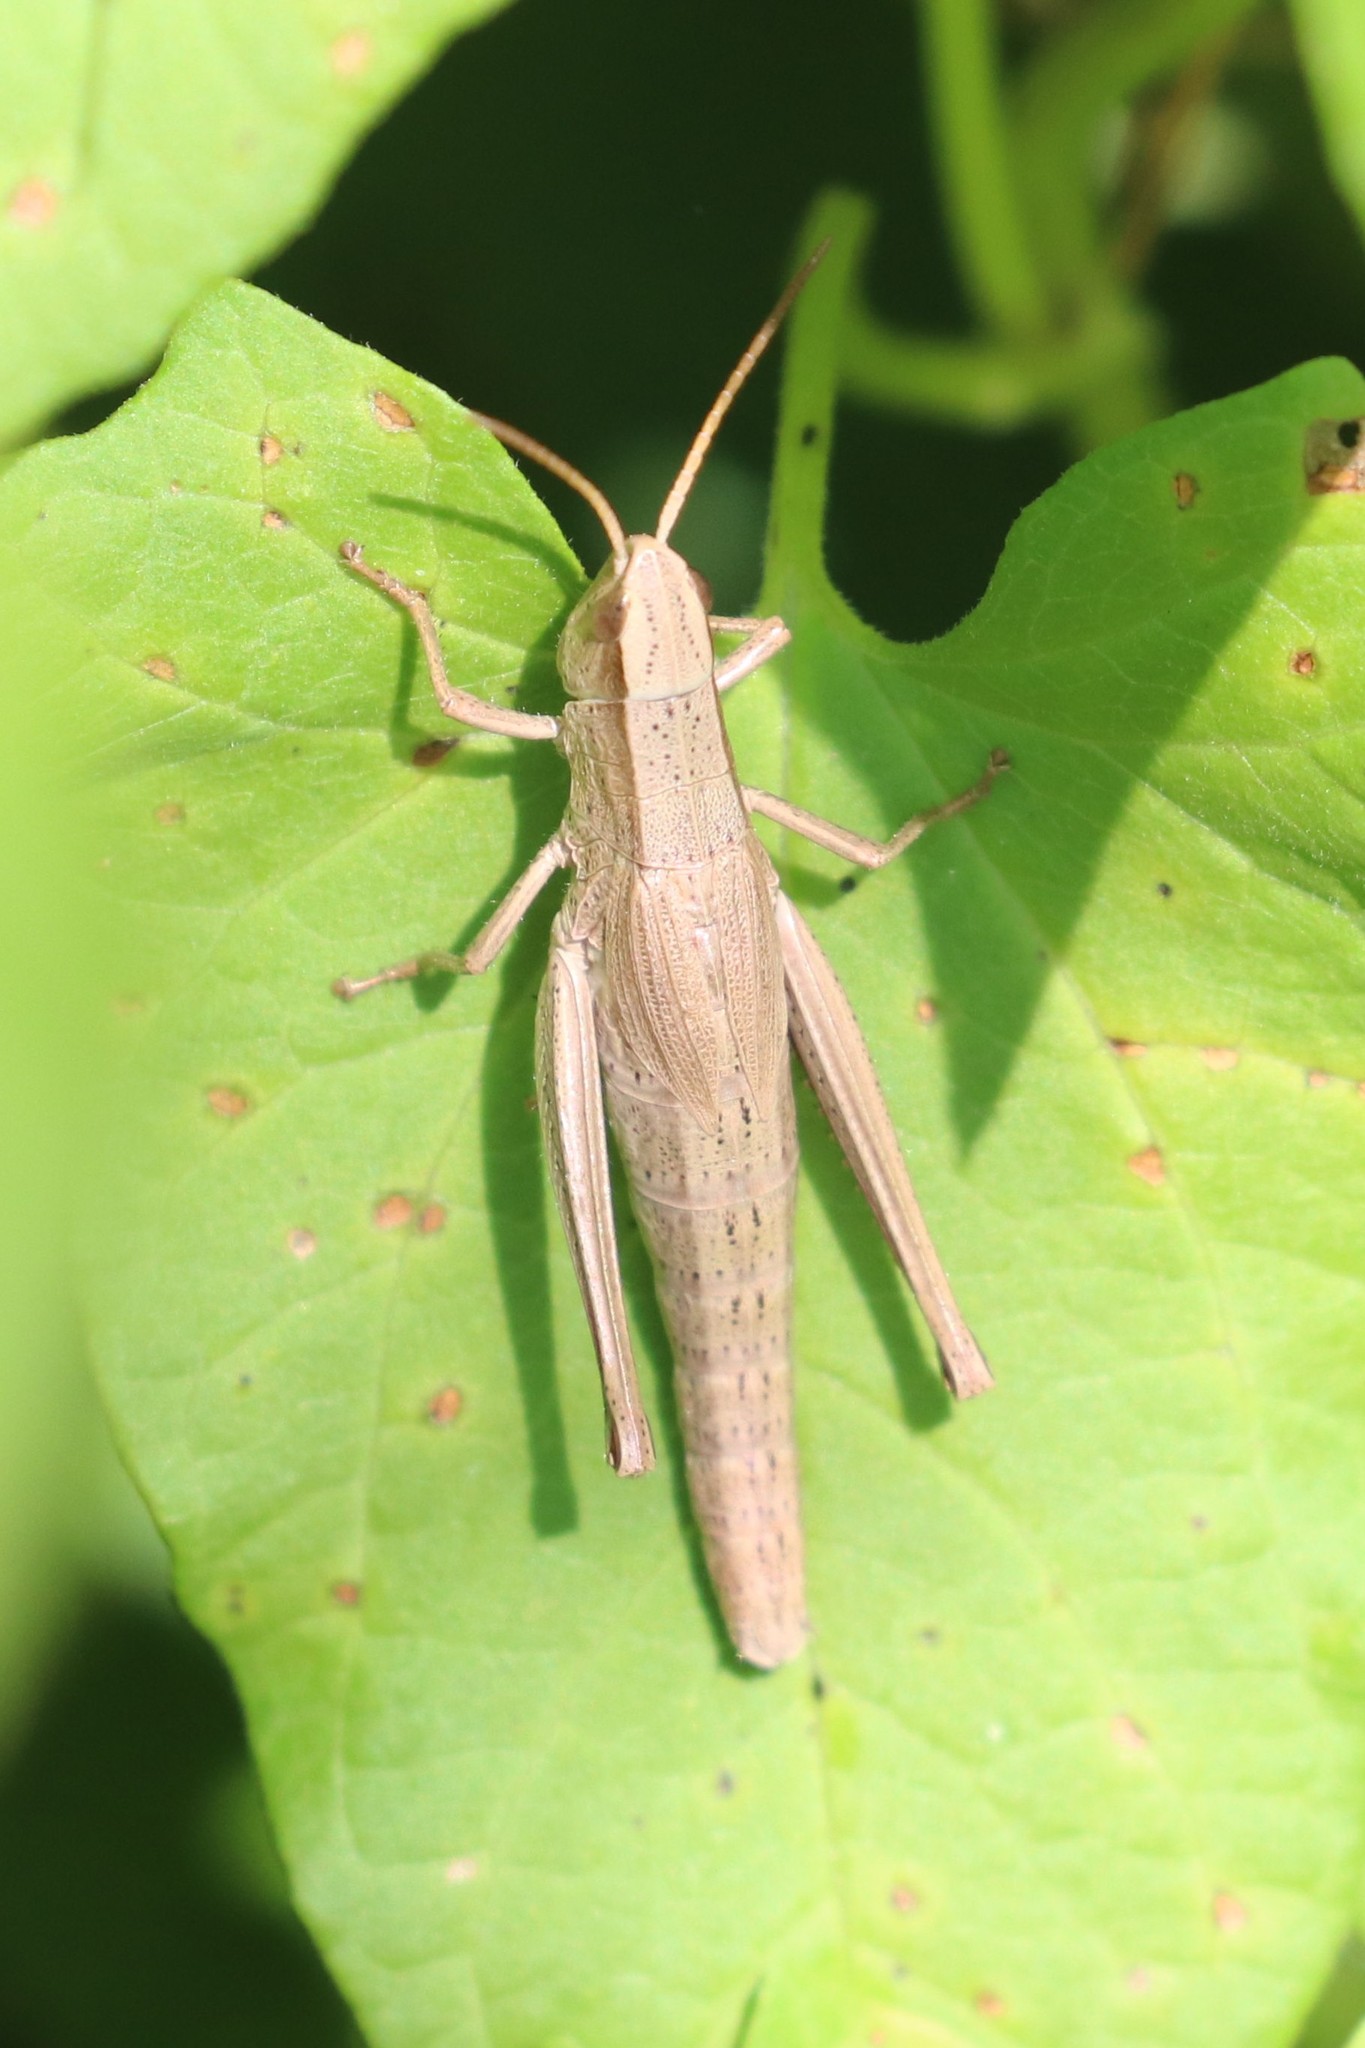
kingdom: Animalia
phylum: Arthropoda
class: Insecta
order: Orthoptera
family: Acrididae
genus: Chrysochraon
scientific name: Chrysochraon dispar
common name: Large gold grasshopper
